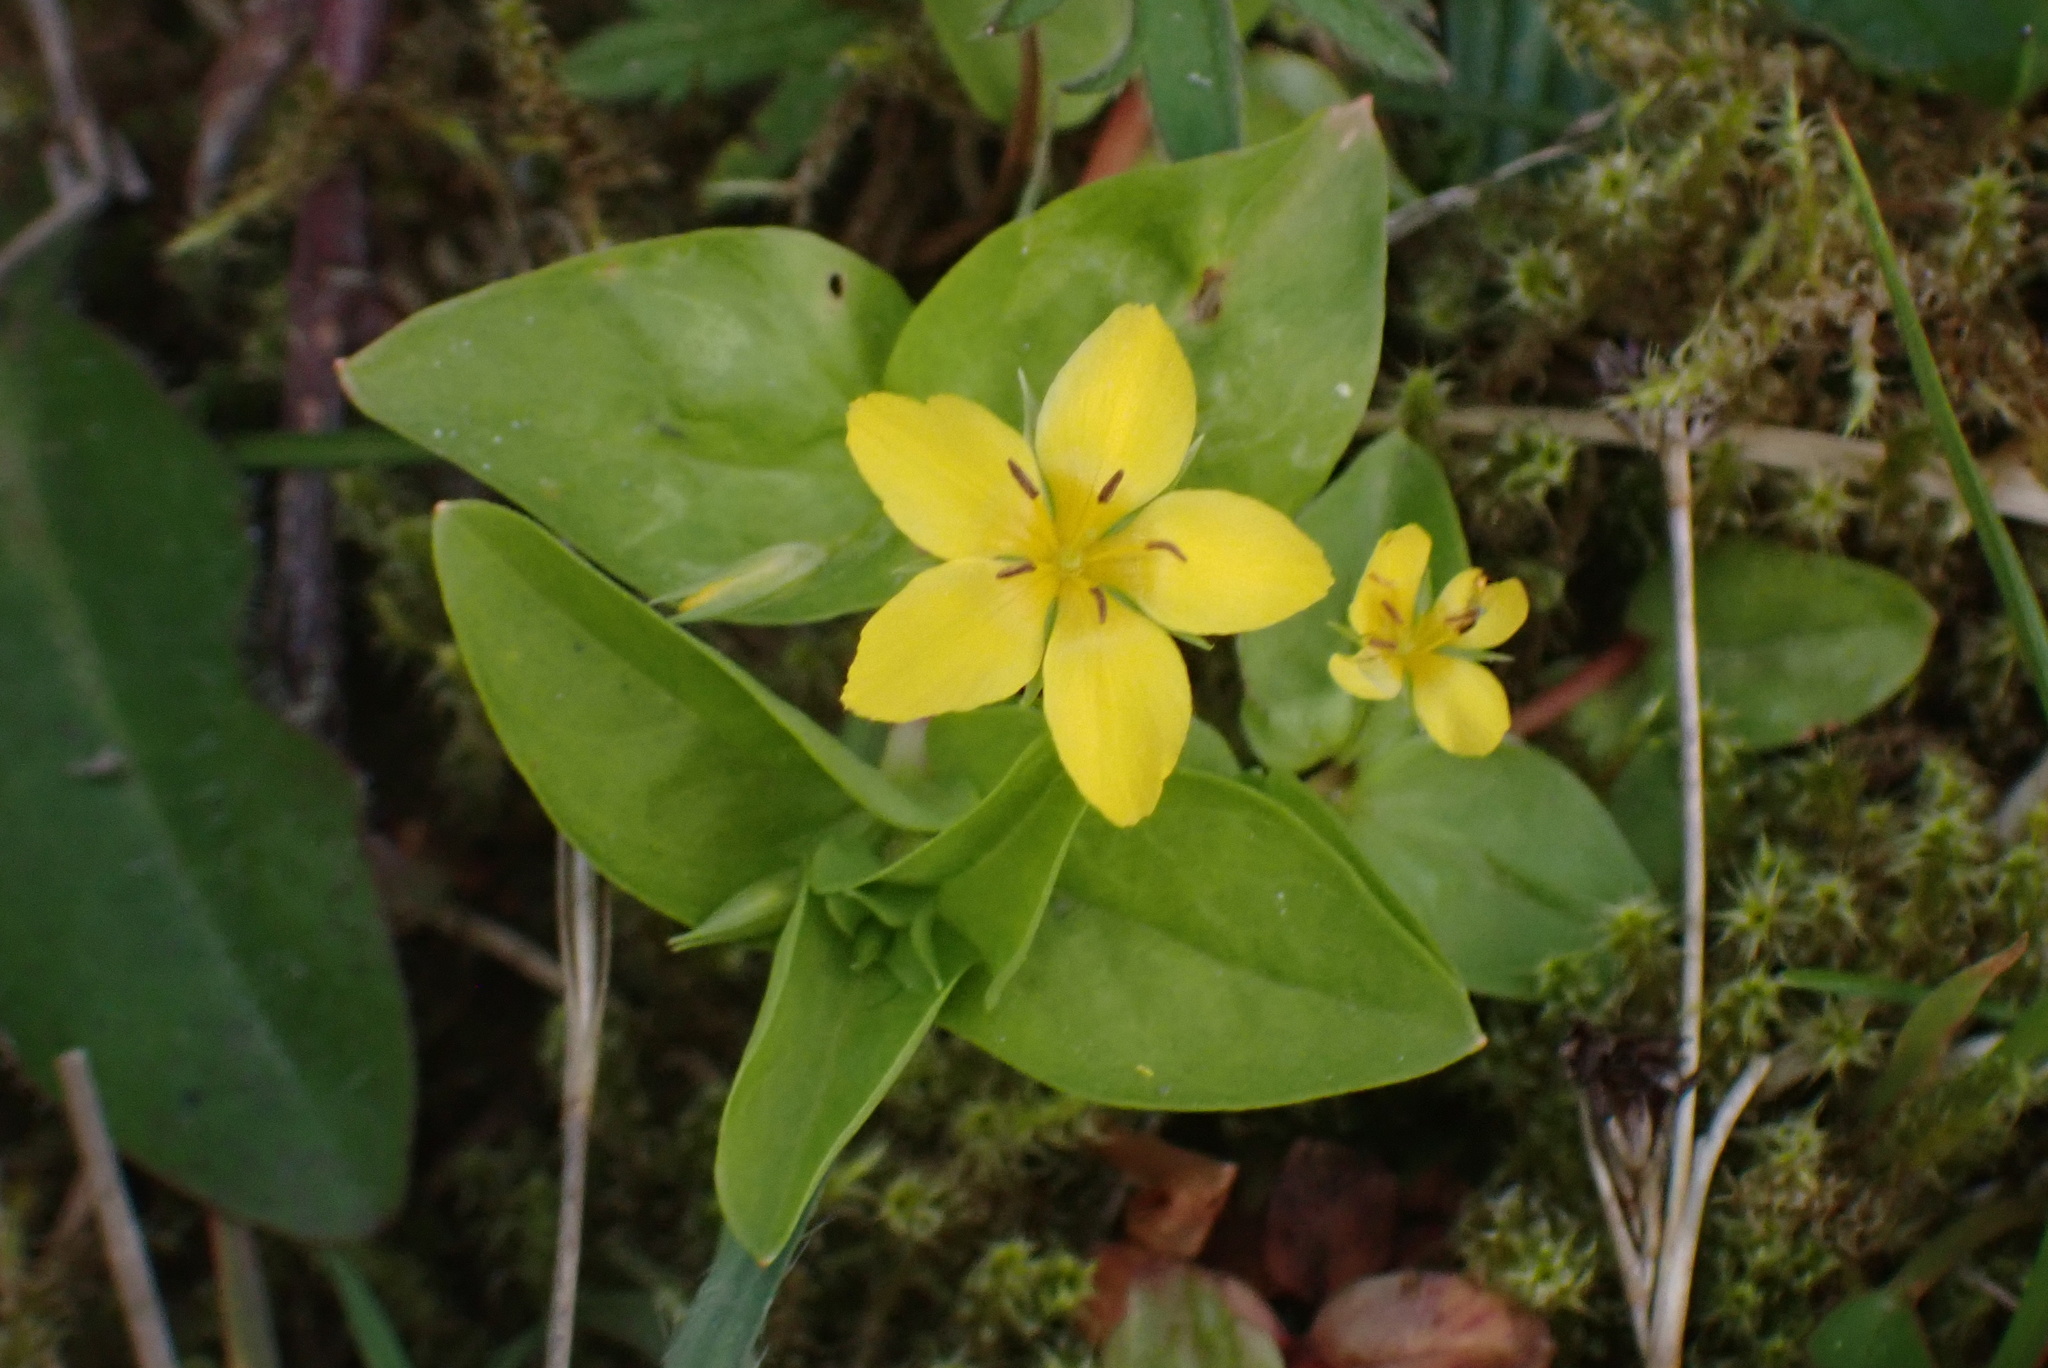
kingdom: Plantae
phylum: Tracheophyta
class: Magnoliopsida
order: Ericales
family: Primulaceae
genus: Lysimachia
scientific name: Lysimachia nemorum
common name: Yellow pimpernel
